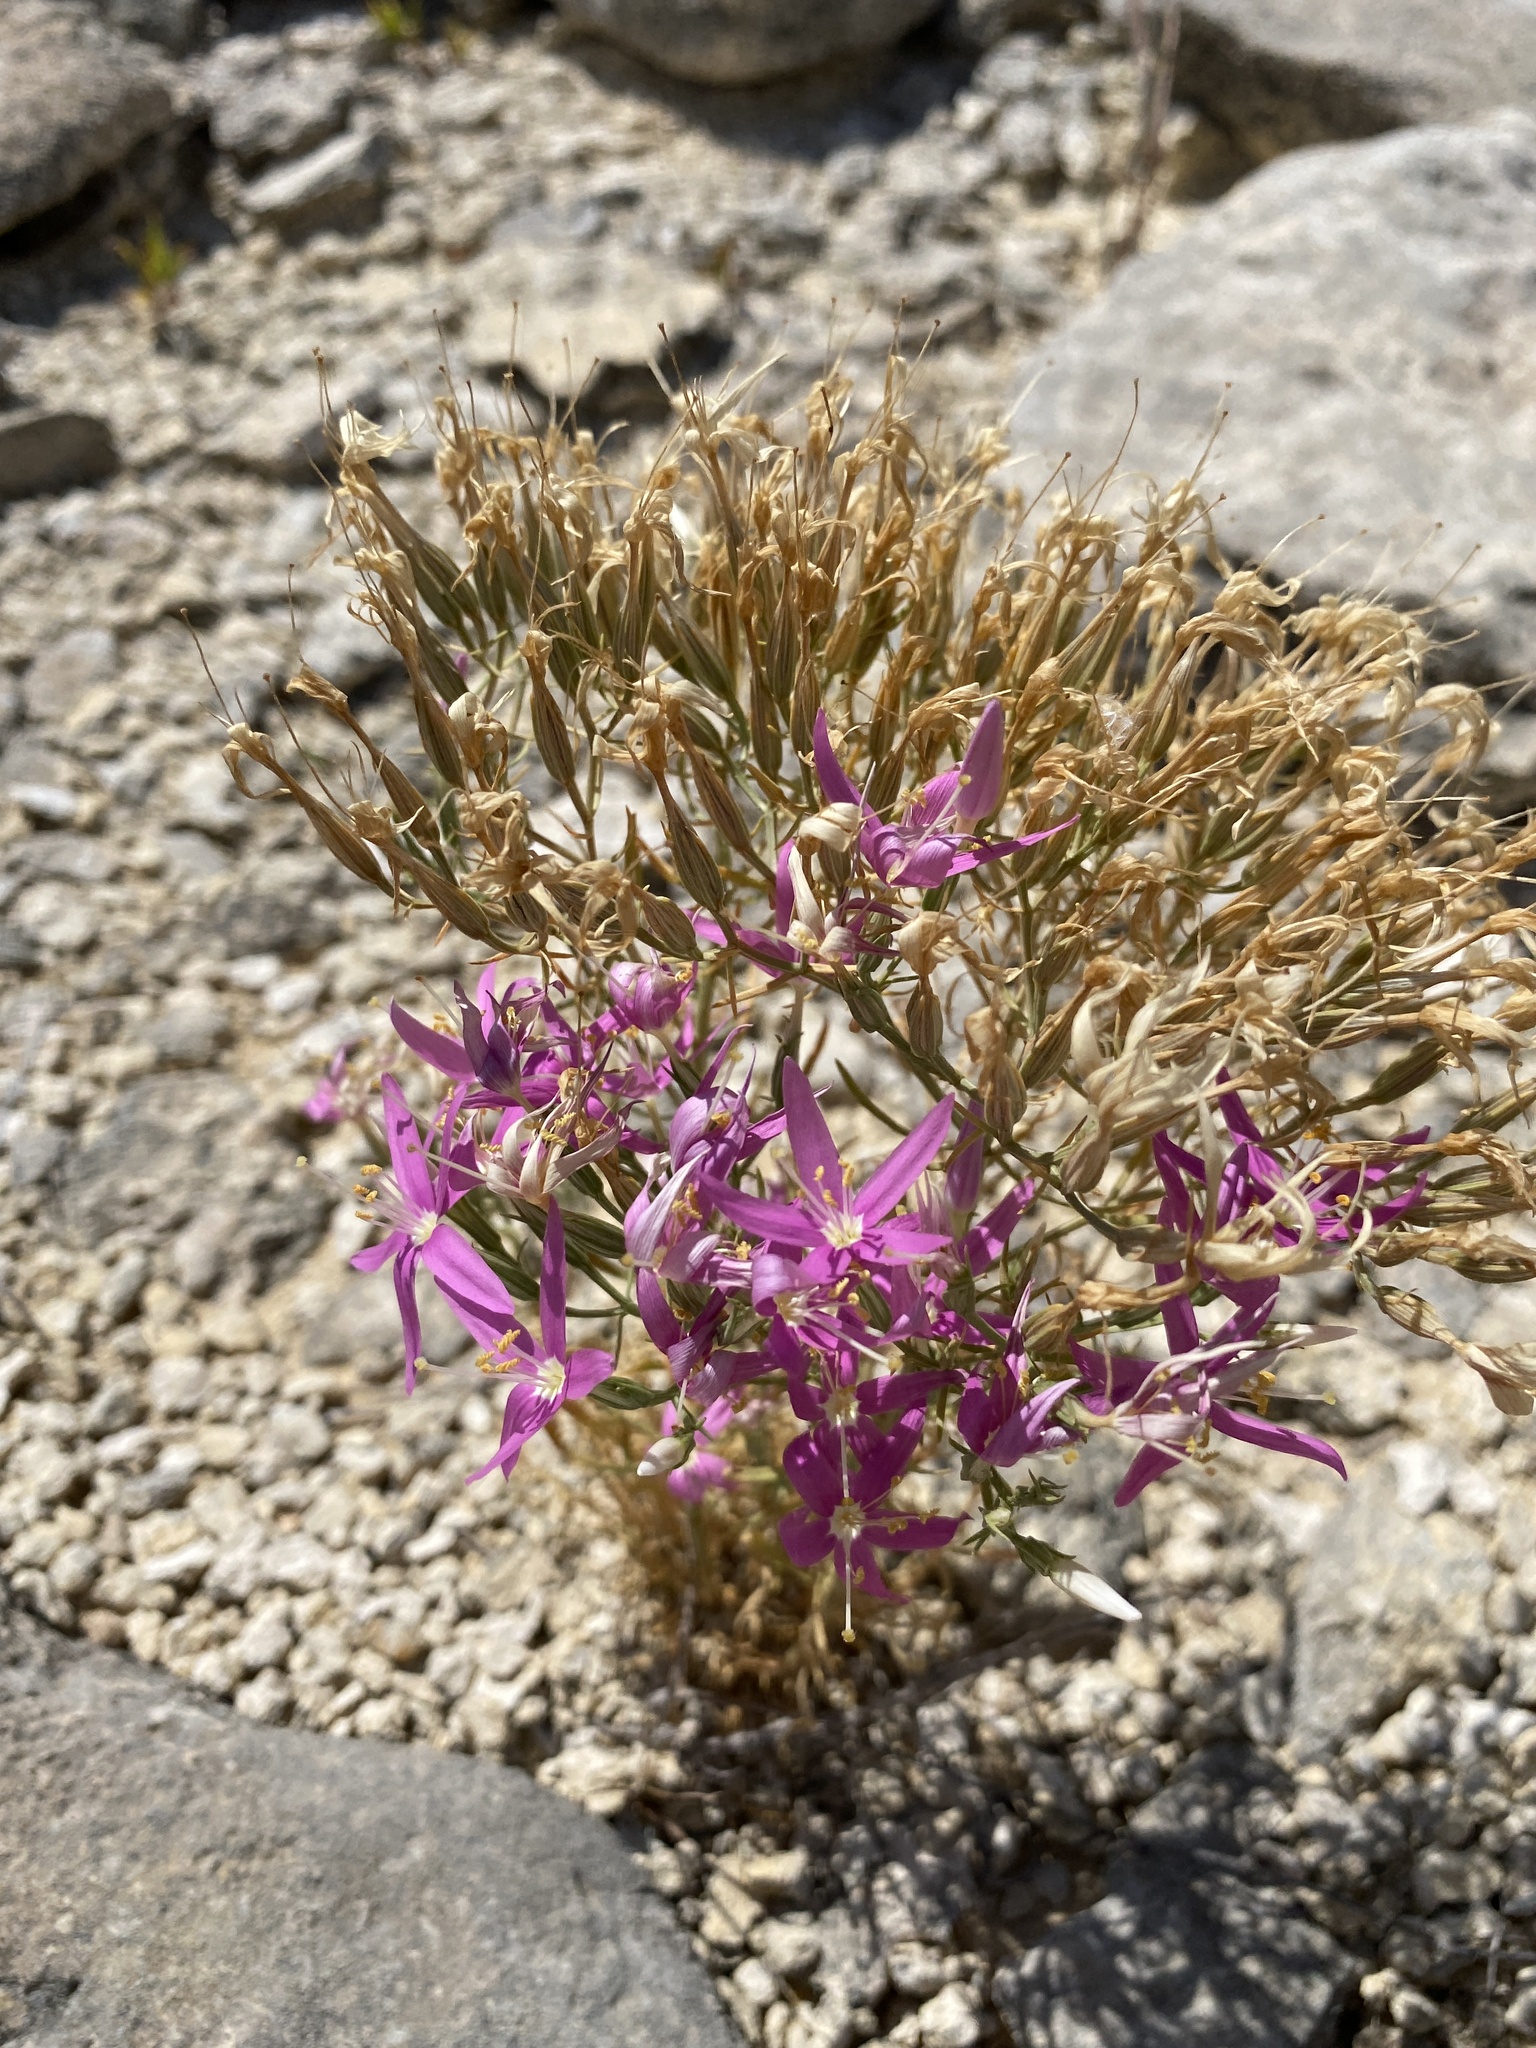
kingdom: Plantae
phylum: Tracheophyta
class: Magnoliopsida
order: Gentianales
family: Gentianaceae
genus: Zeltnera
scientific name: Zeltnera beyrichii
